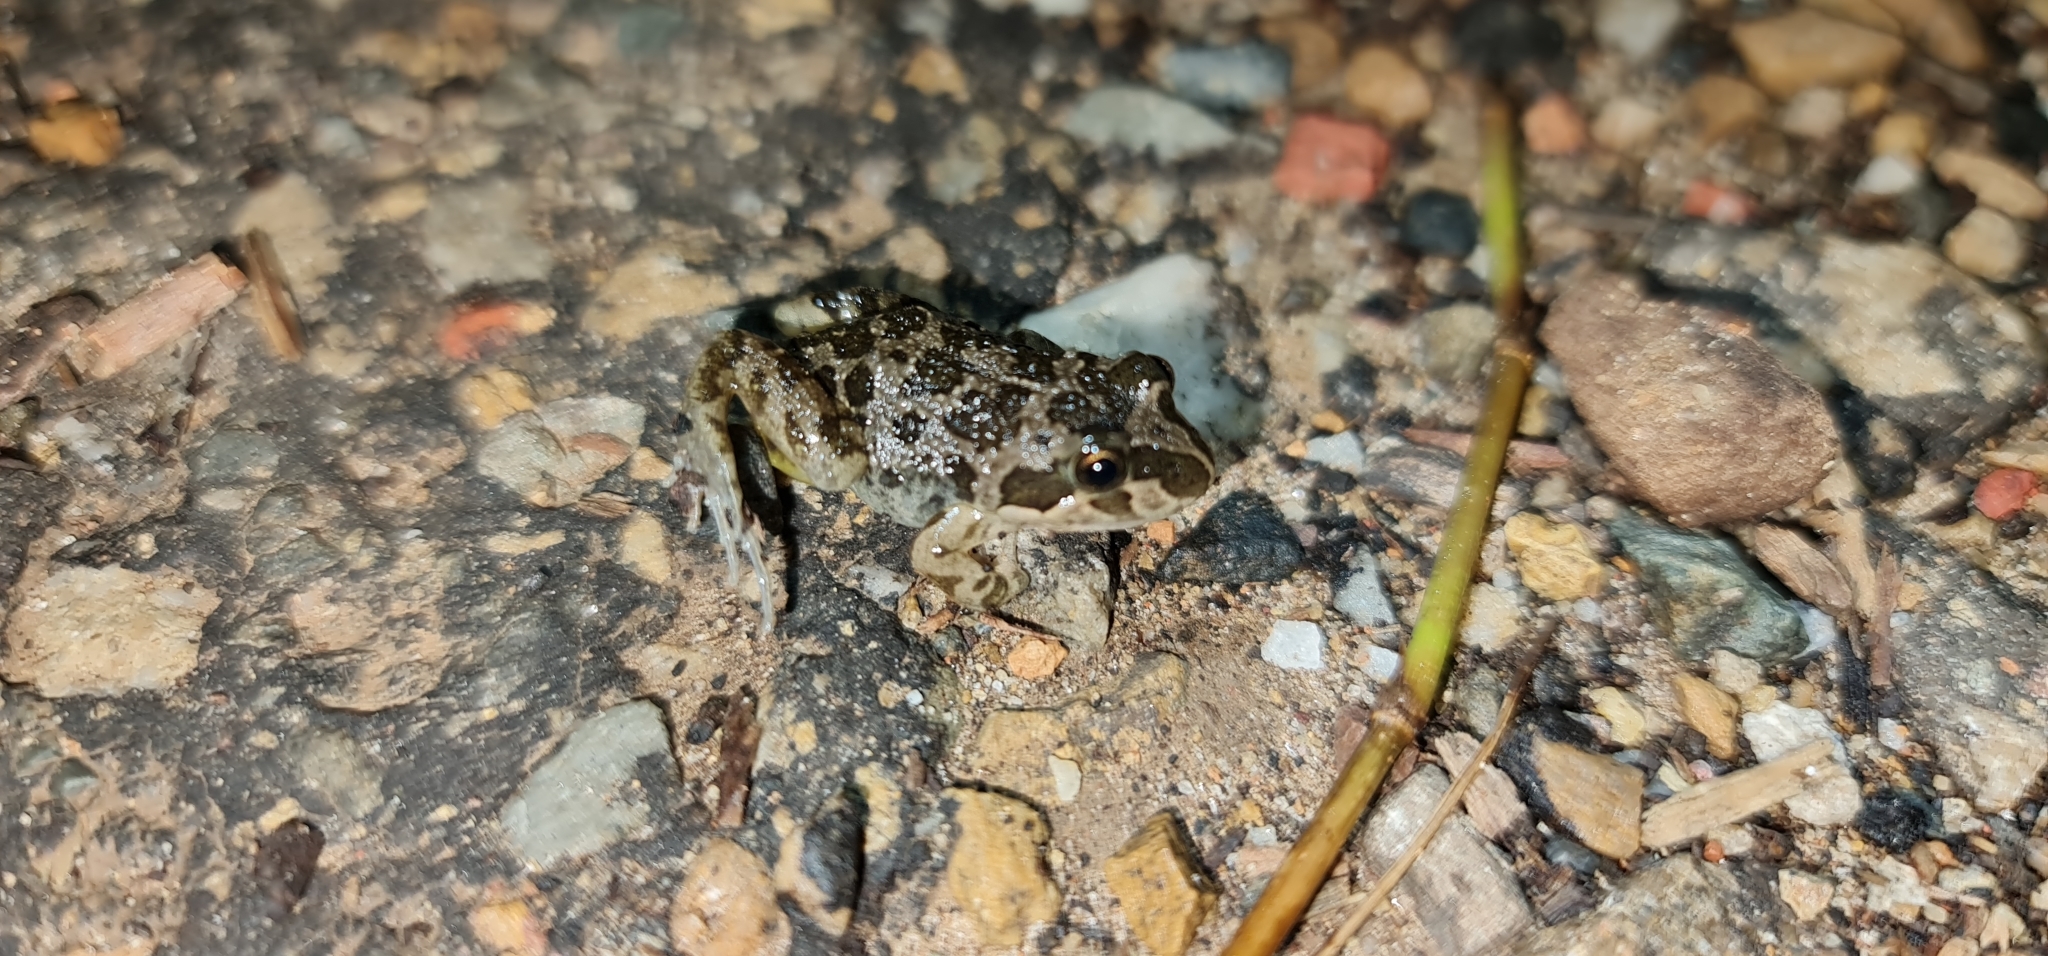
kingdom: Animalia
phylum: Chordata
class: Amphibia
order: Anura
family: Limnodynastidae
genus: Limnodynastes
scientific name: Limnodynastes tasmaniensis
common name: Spotted marsh frog
